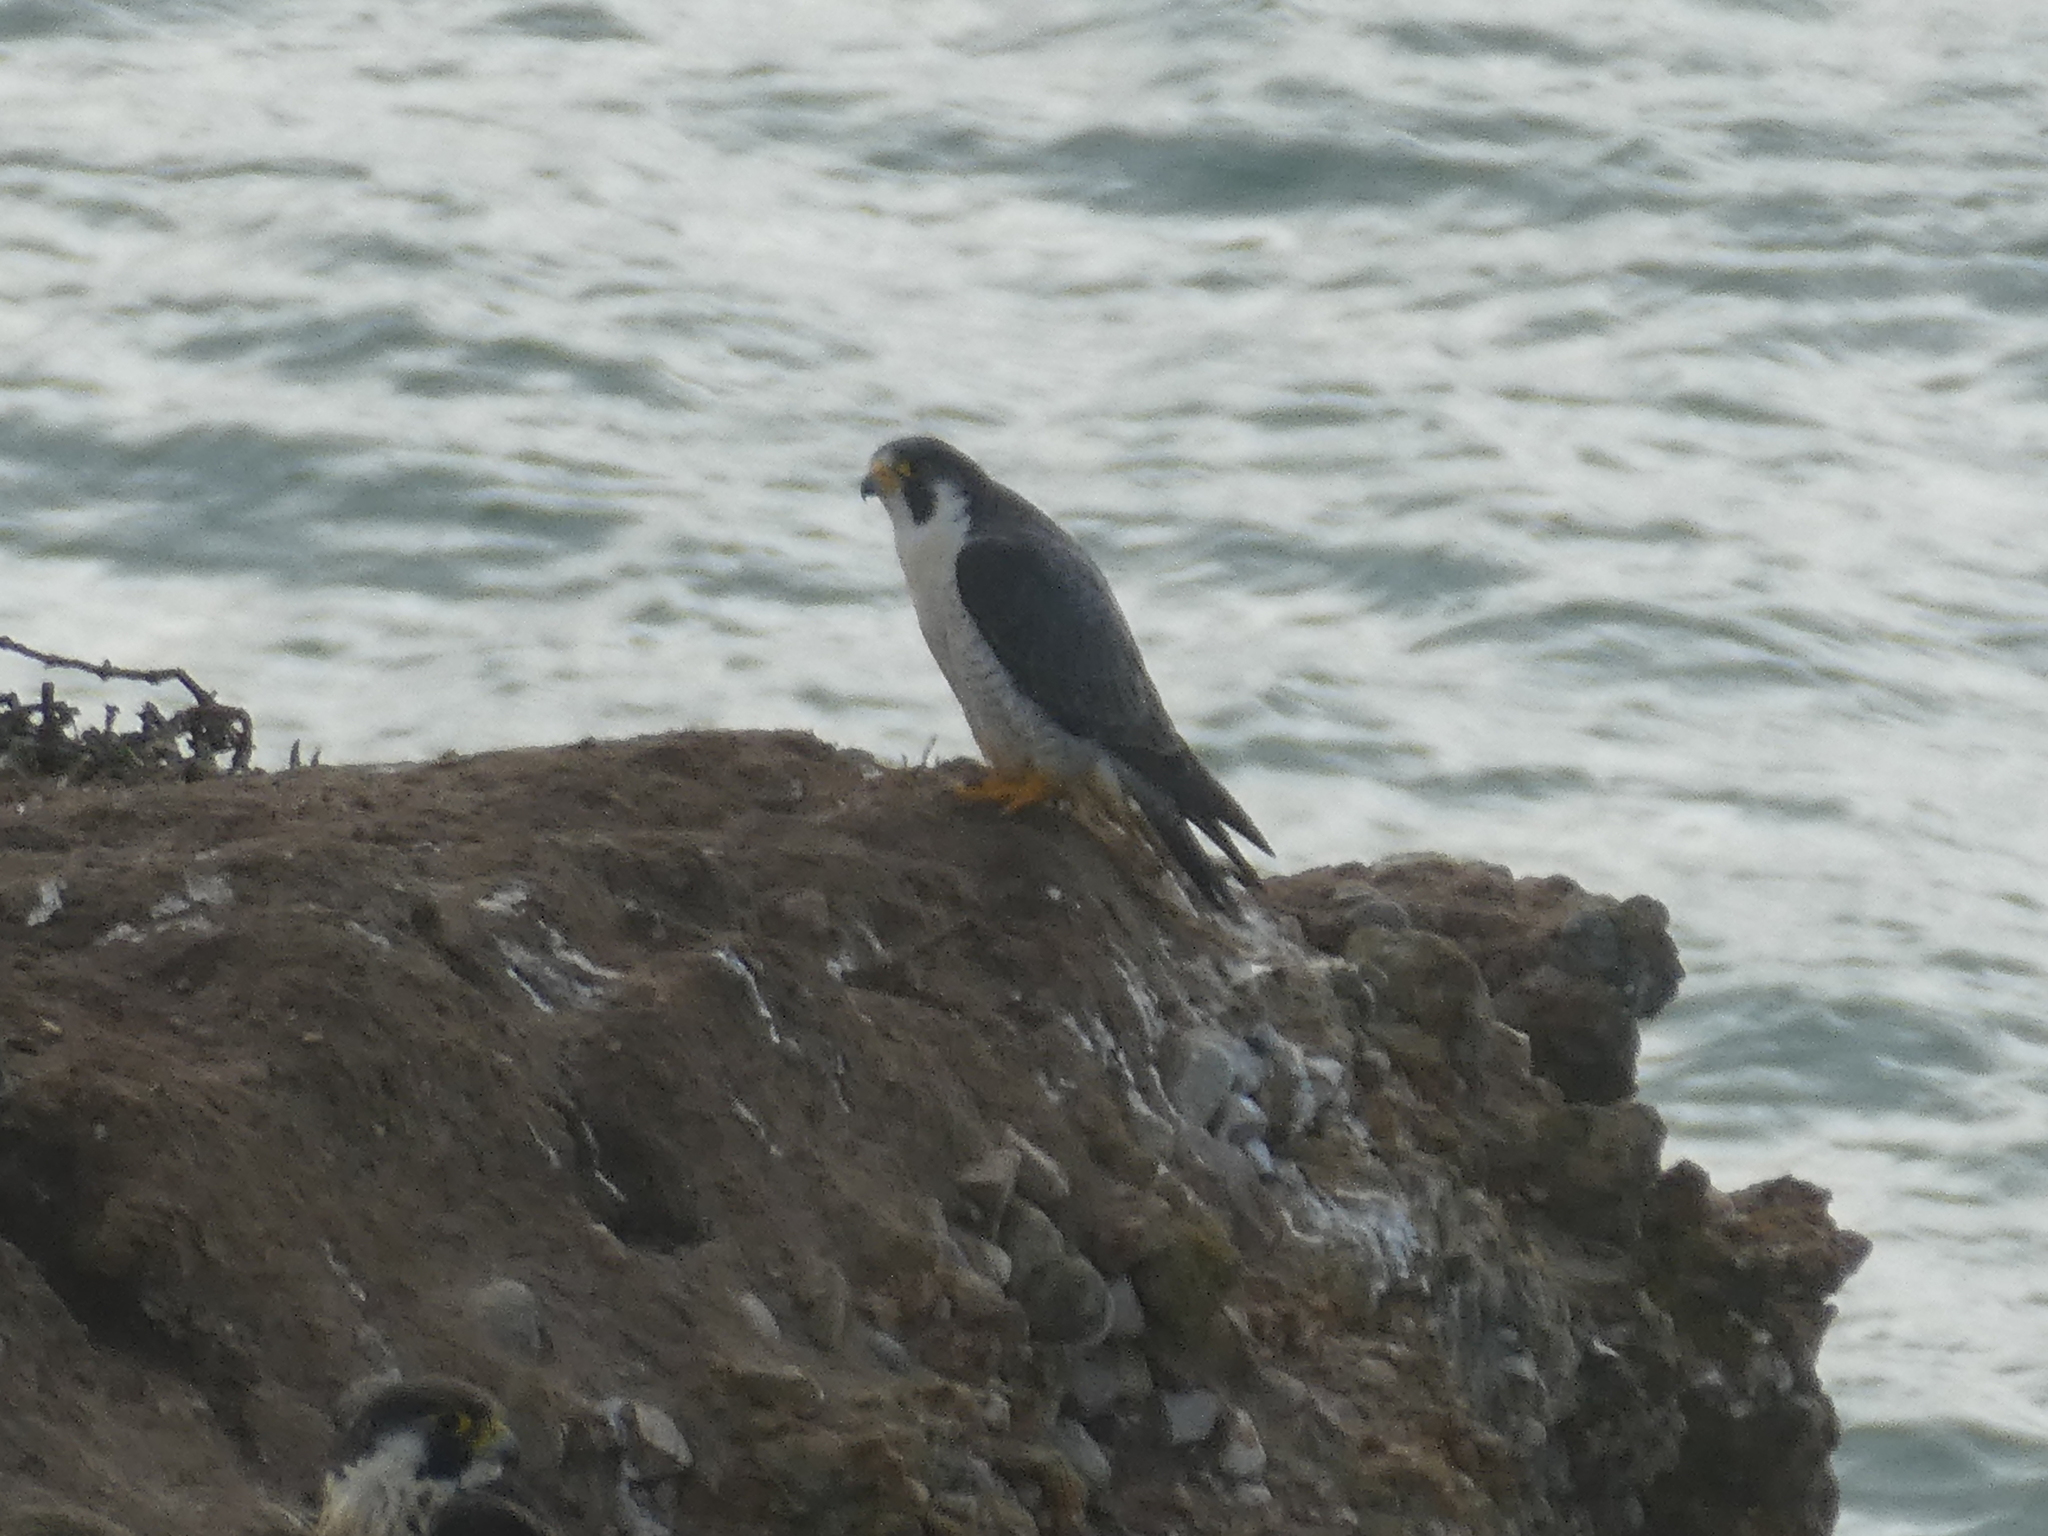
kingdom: Animalia
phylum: Chordata
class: Aves
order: Falconiformes
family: Falconidae
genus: Falco
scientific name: Falco peregrinus
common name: Peregrine falcon
